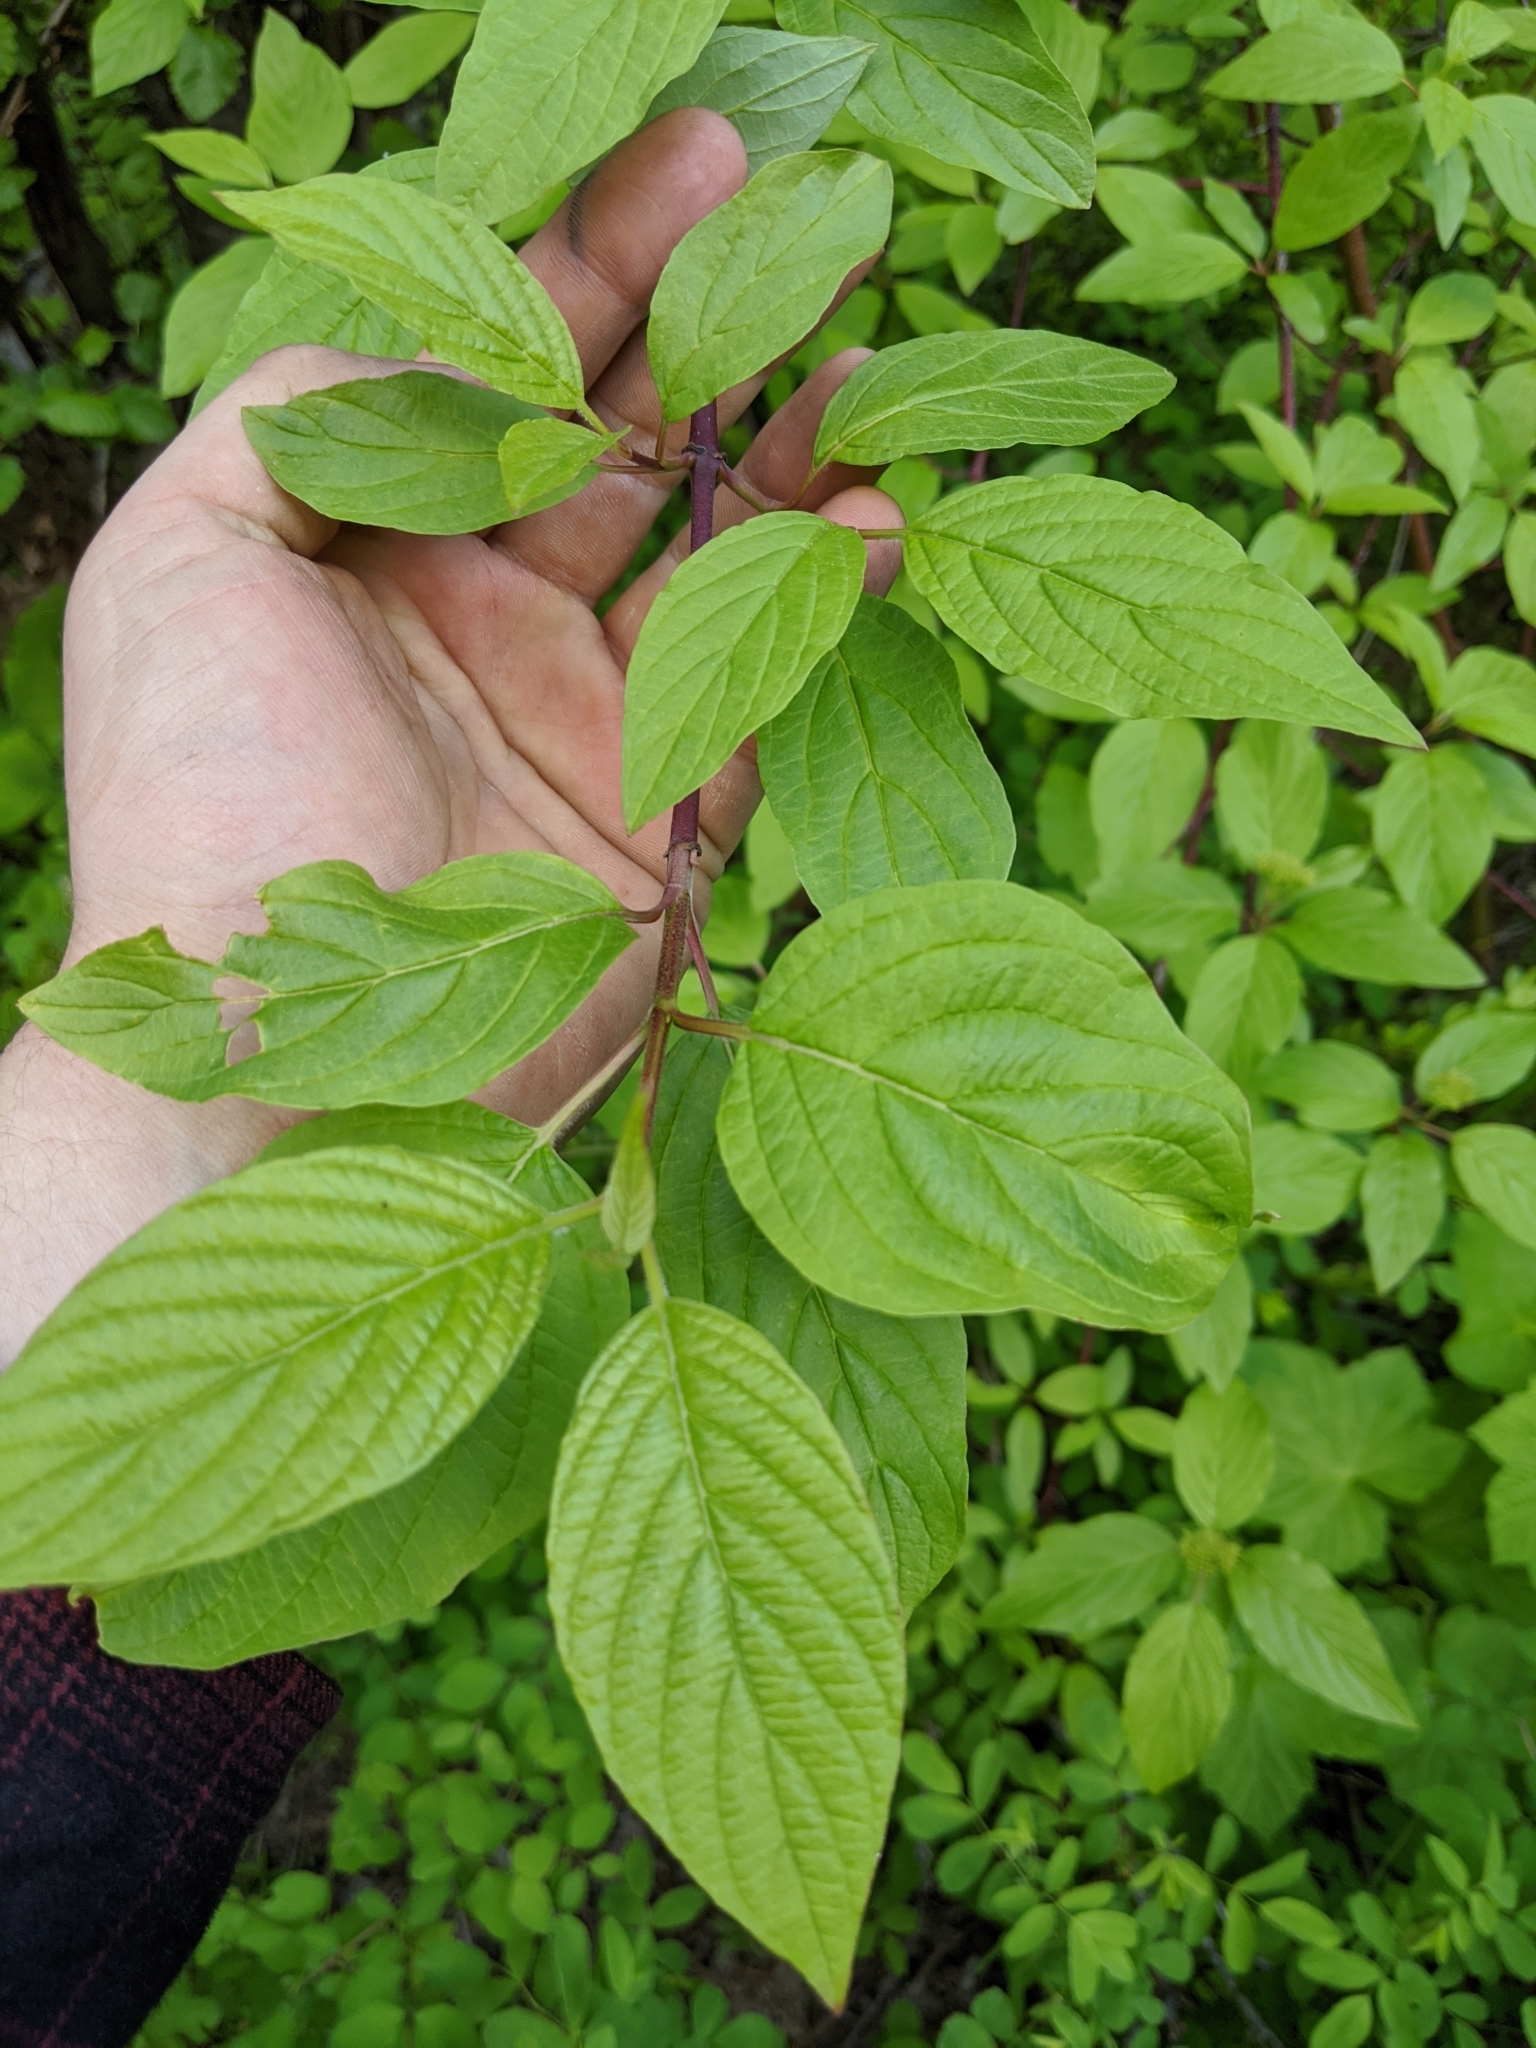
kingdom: Plantae
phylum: Tracheophyta
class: Magnoliopsida
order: Cornales
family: Cornaceae
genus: Cornus
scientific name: Cornus sericea
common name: Red-osier dogwood
